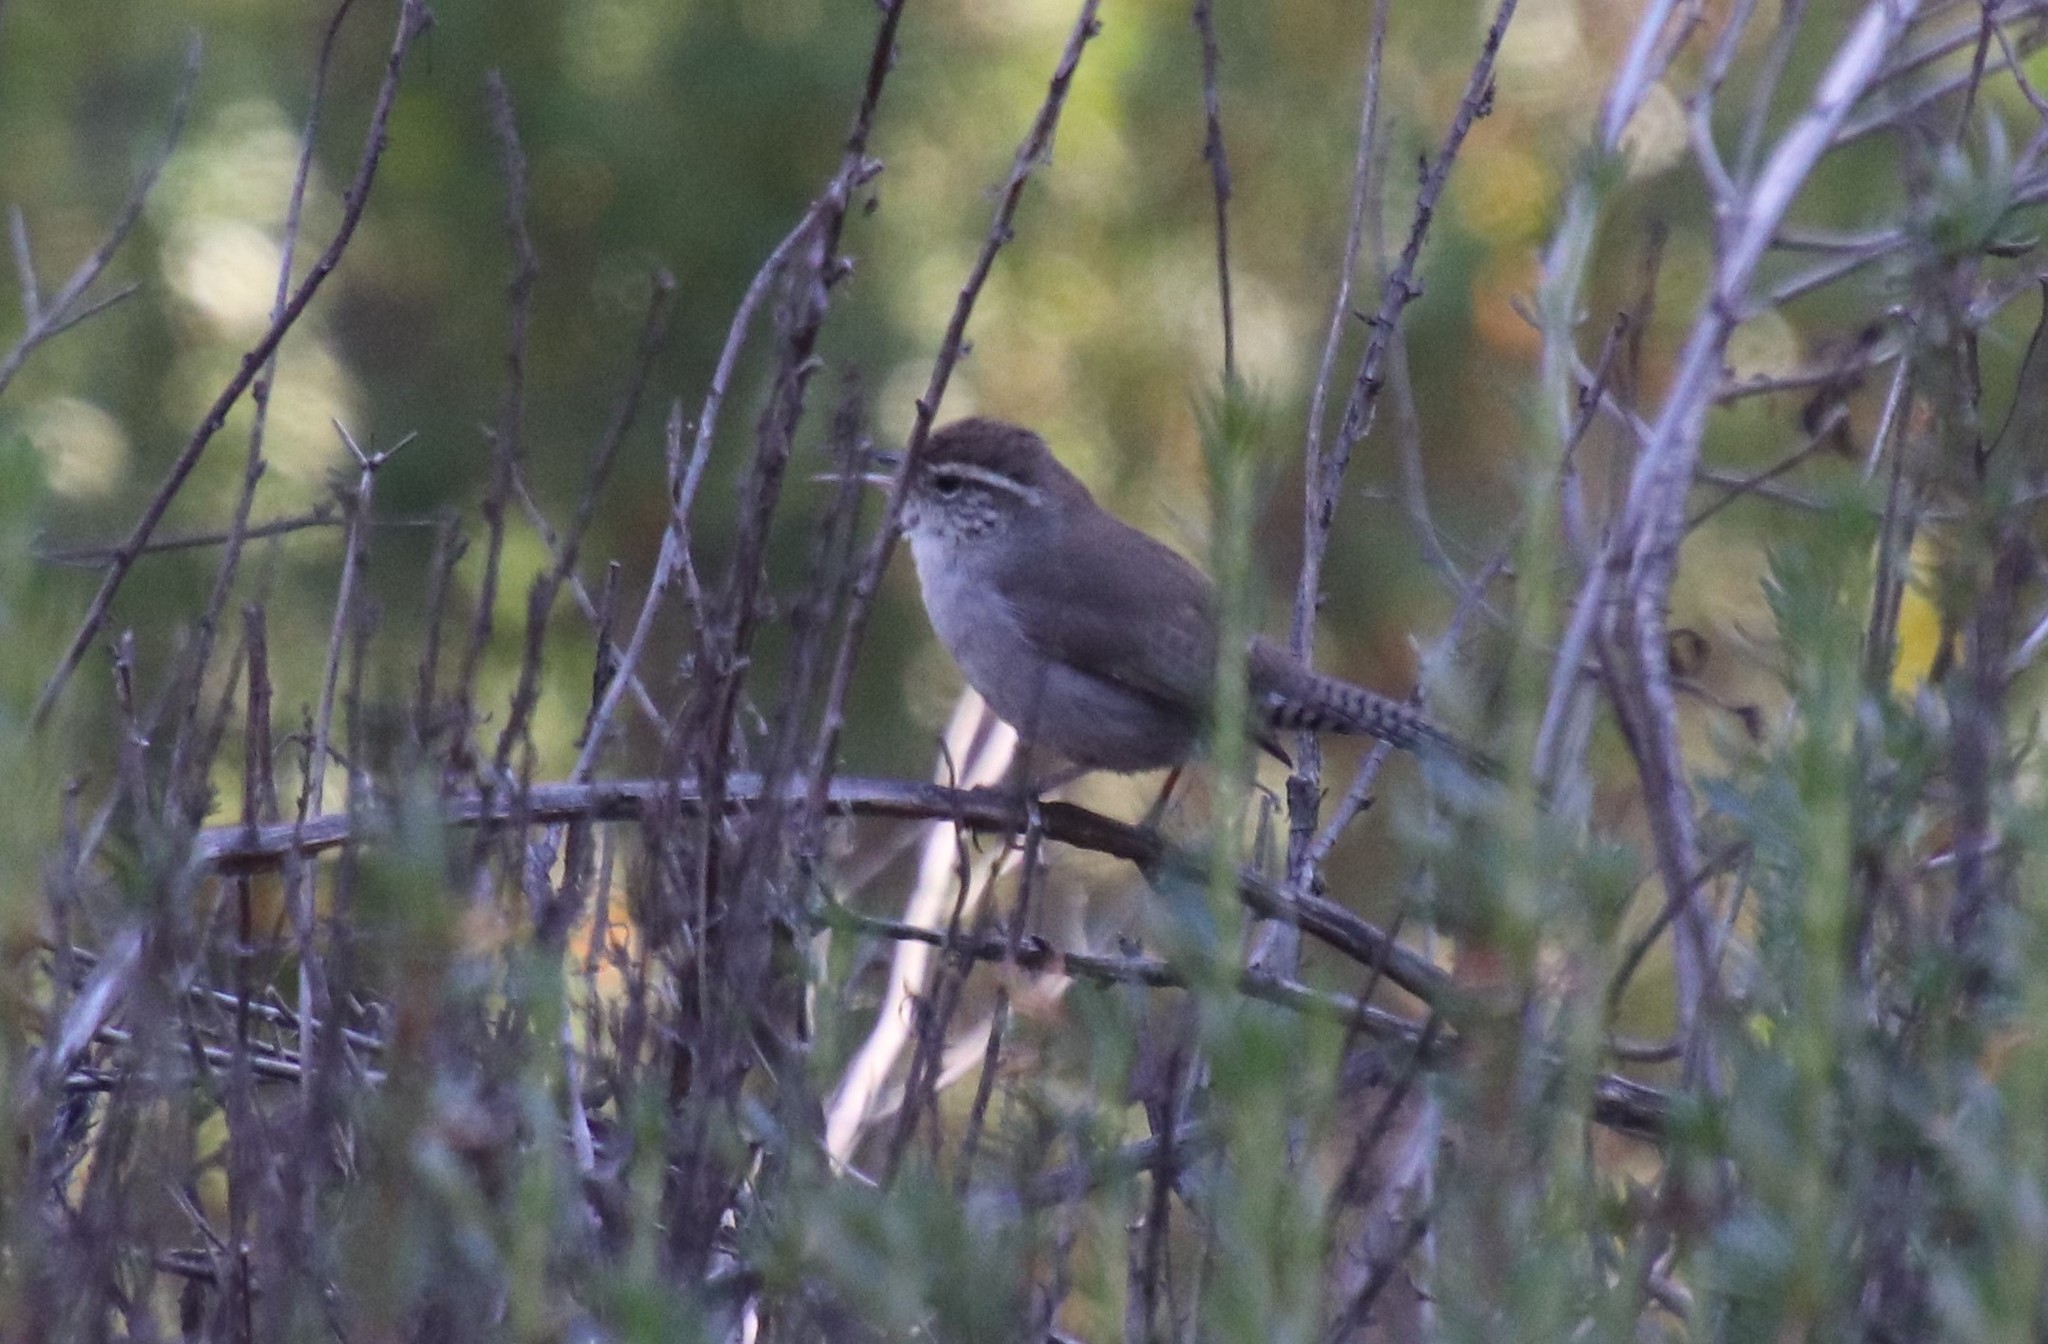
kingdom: Animalia
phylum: Chordata
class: Aves
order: Passeriformes
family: Troglodytidae
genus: Thryomanes
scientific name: Thryomanes bewickii
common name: Bewick's wren
